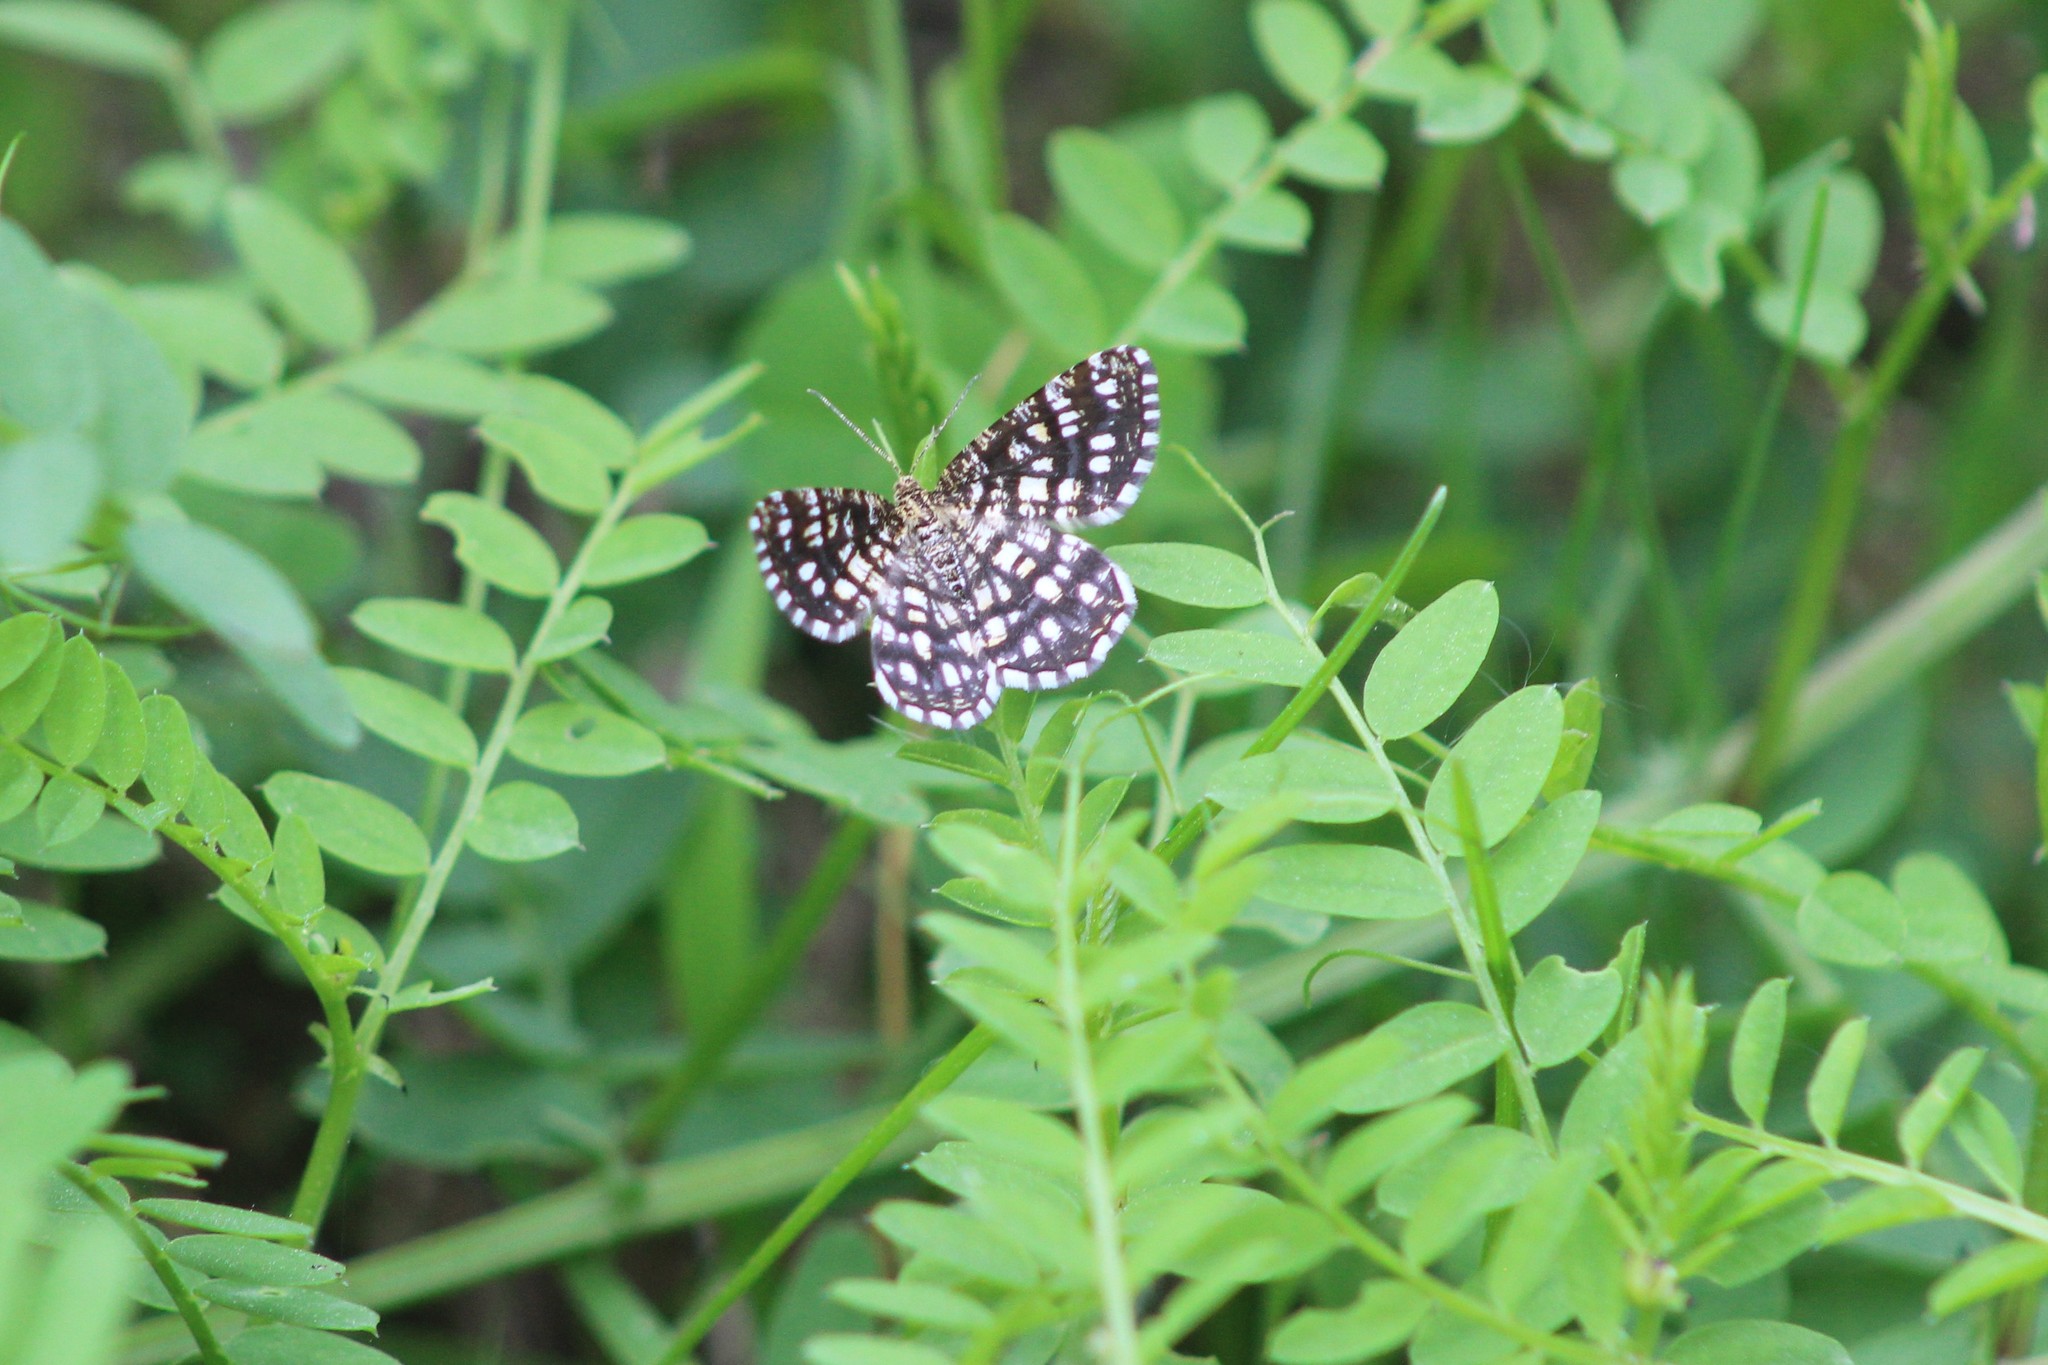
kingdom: Animalia
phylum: Arthropoda
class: Insecta
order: Lepidoptera
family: Geometridae
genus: Chiasmia
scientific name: Chiasmia clathrata
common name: Latticed heath
